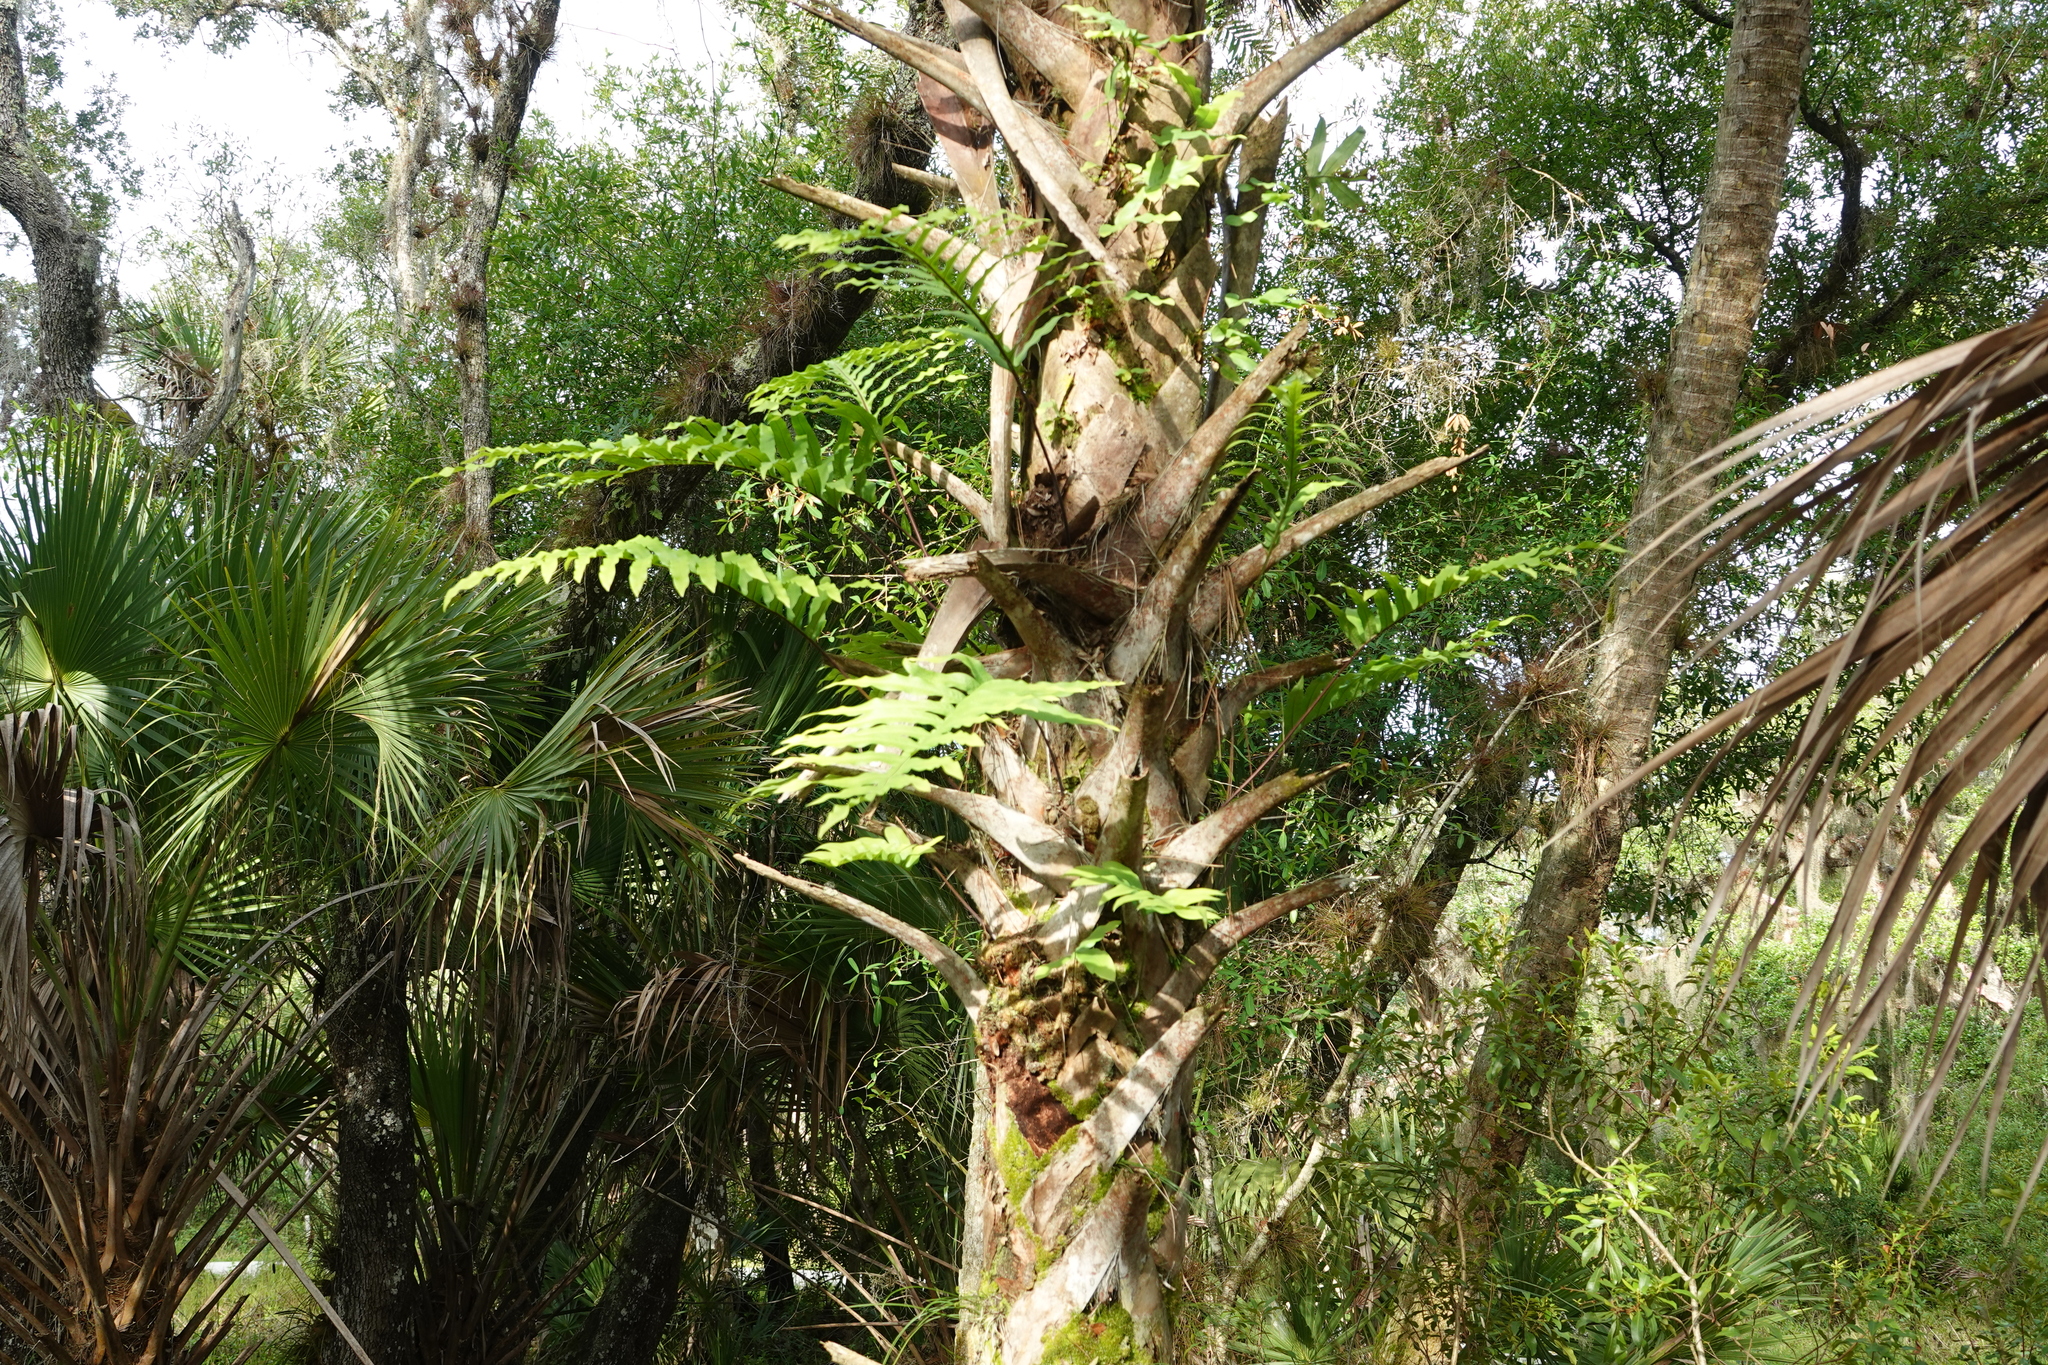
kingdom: Plantae
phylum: Tracheophyta
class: Polypodiopsida
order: Polypodiales
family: Polypodiaceae
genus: Phlebodium
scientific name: Phlebodium aureum
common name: Gold-foot fern
